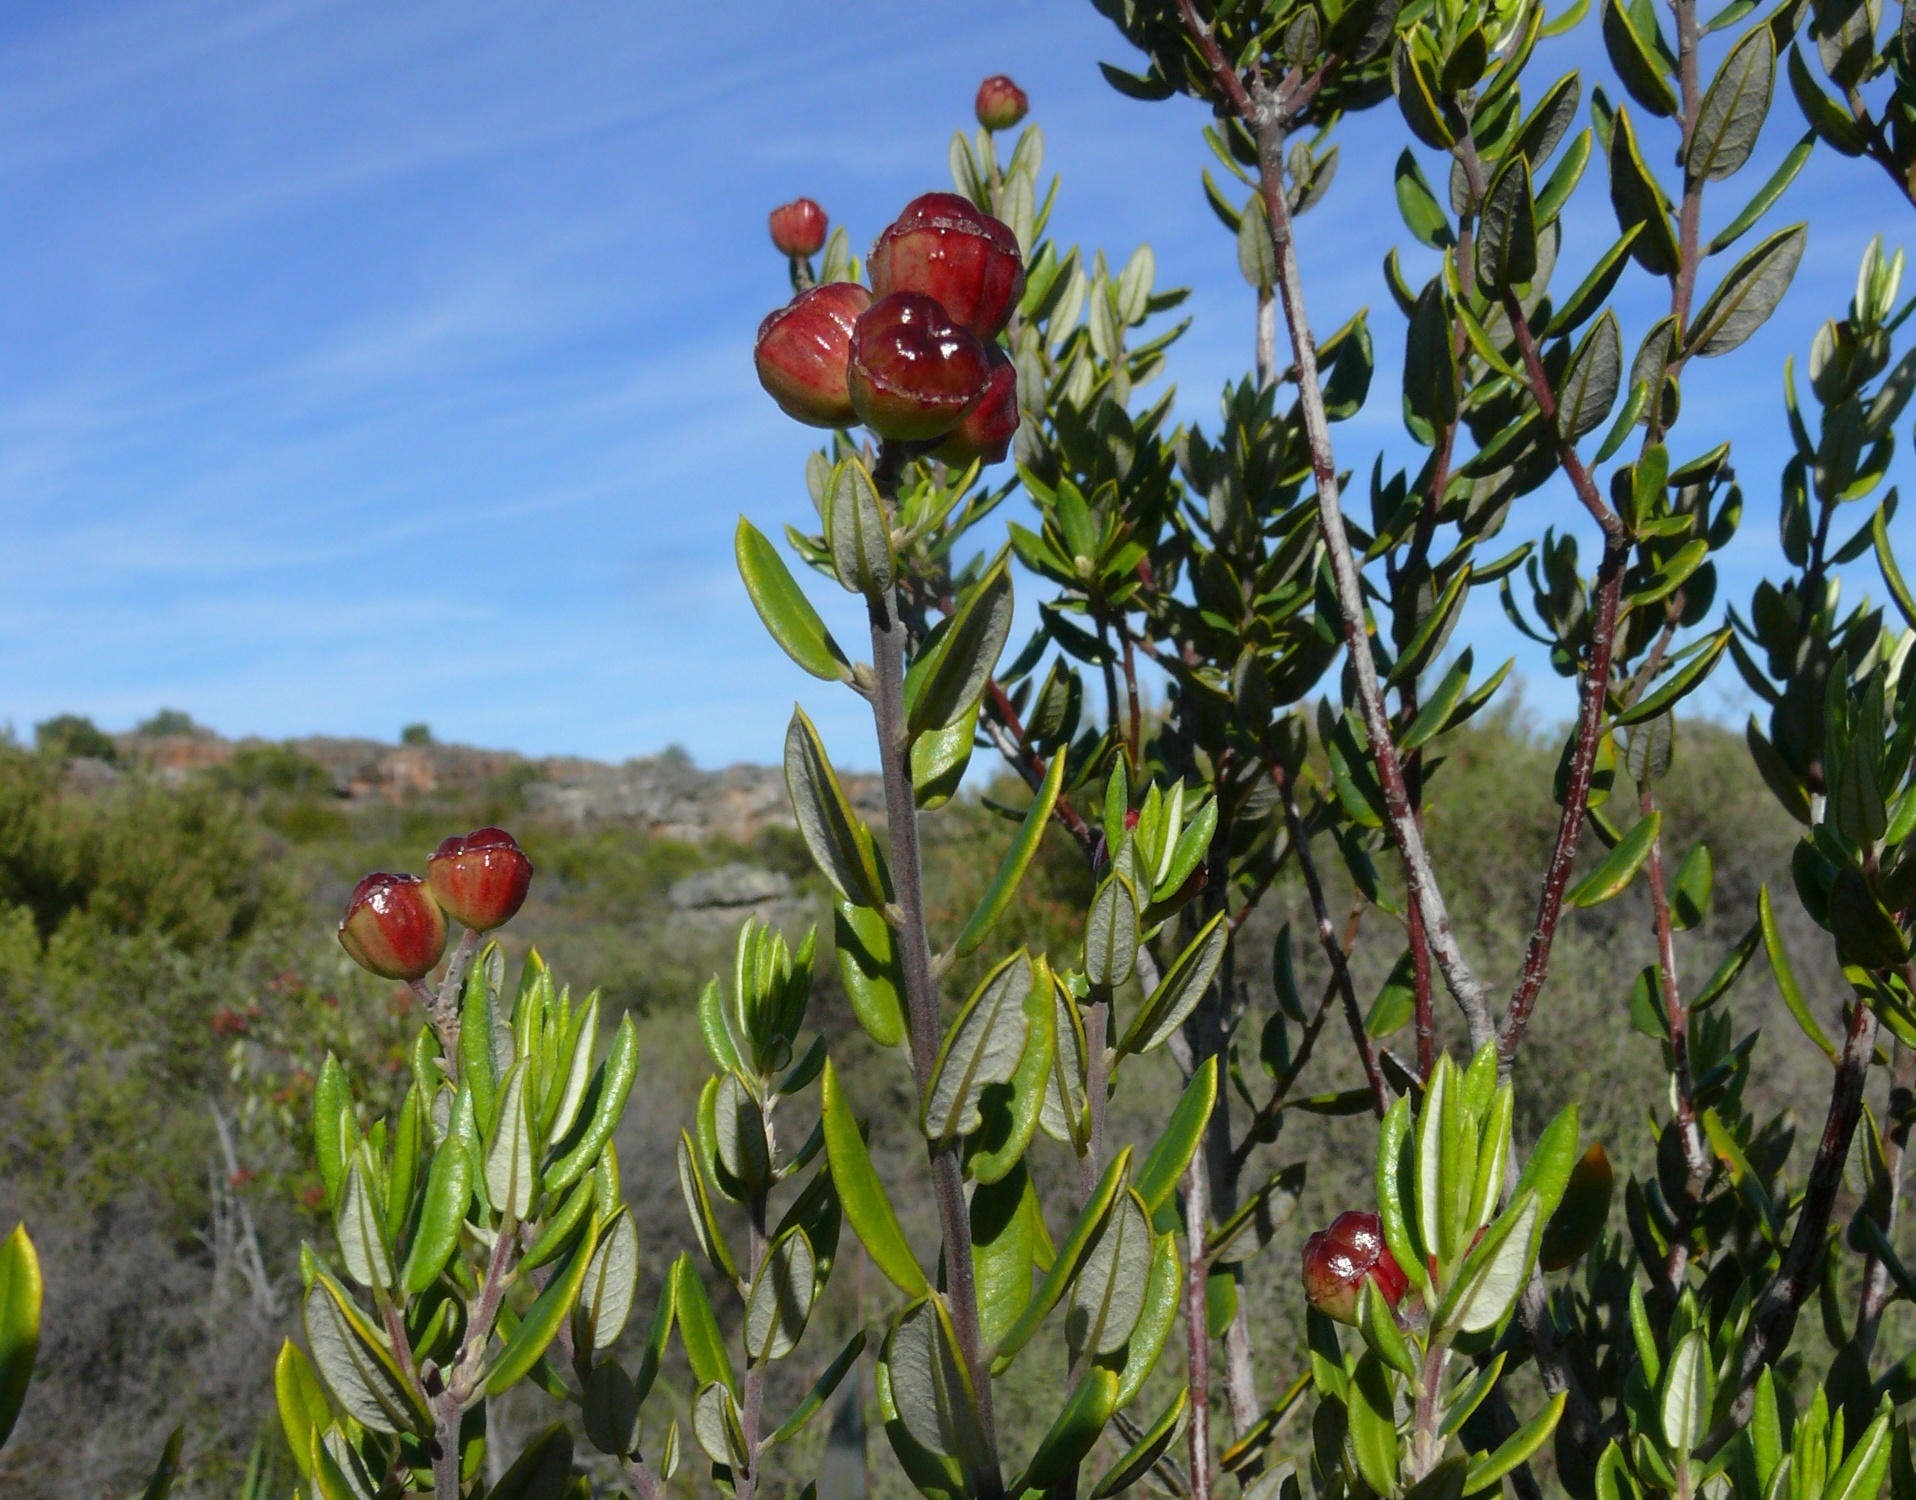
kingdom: Plantae
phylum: Tracheophyta
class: Magnoliopsida
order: Rosales
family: Rhamnaceae
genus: Phylica
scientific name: Phylica oleifolia
